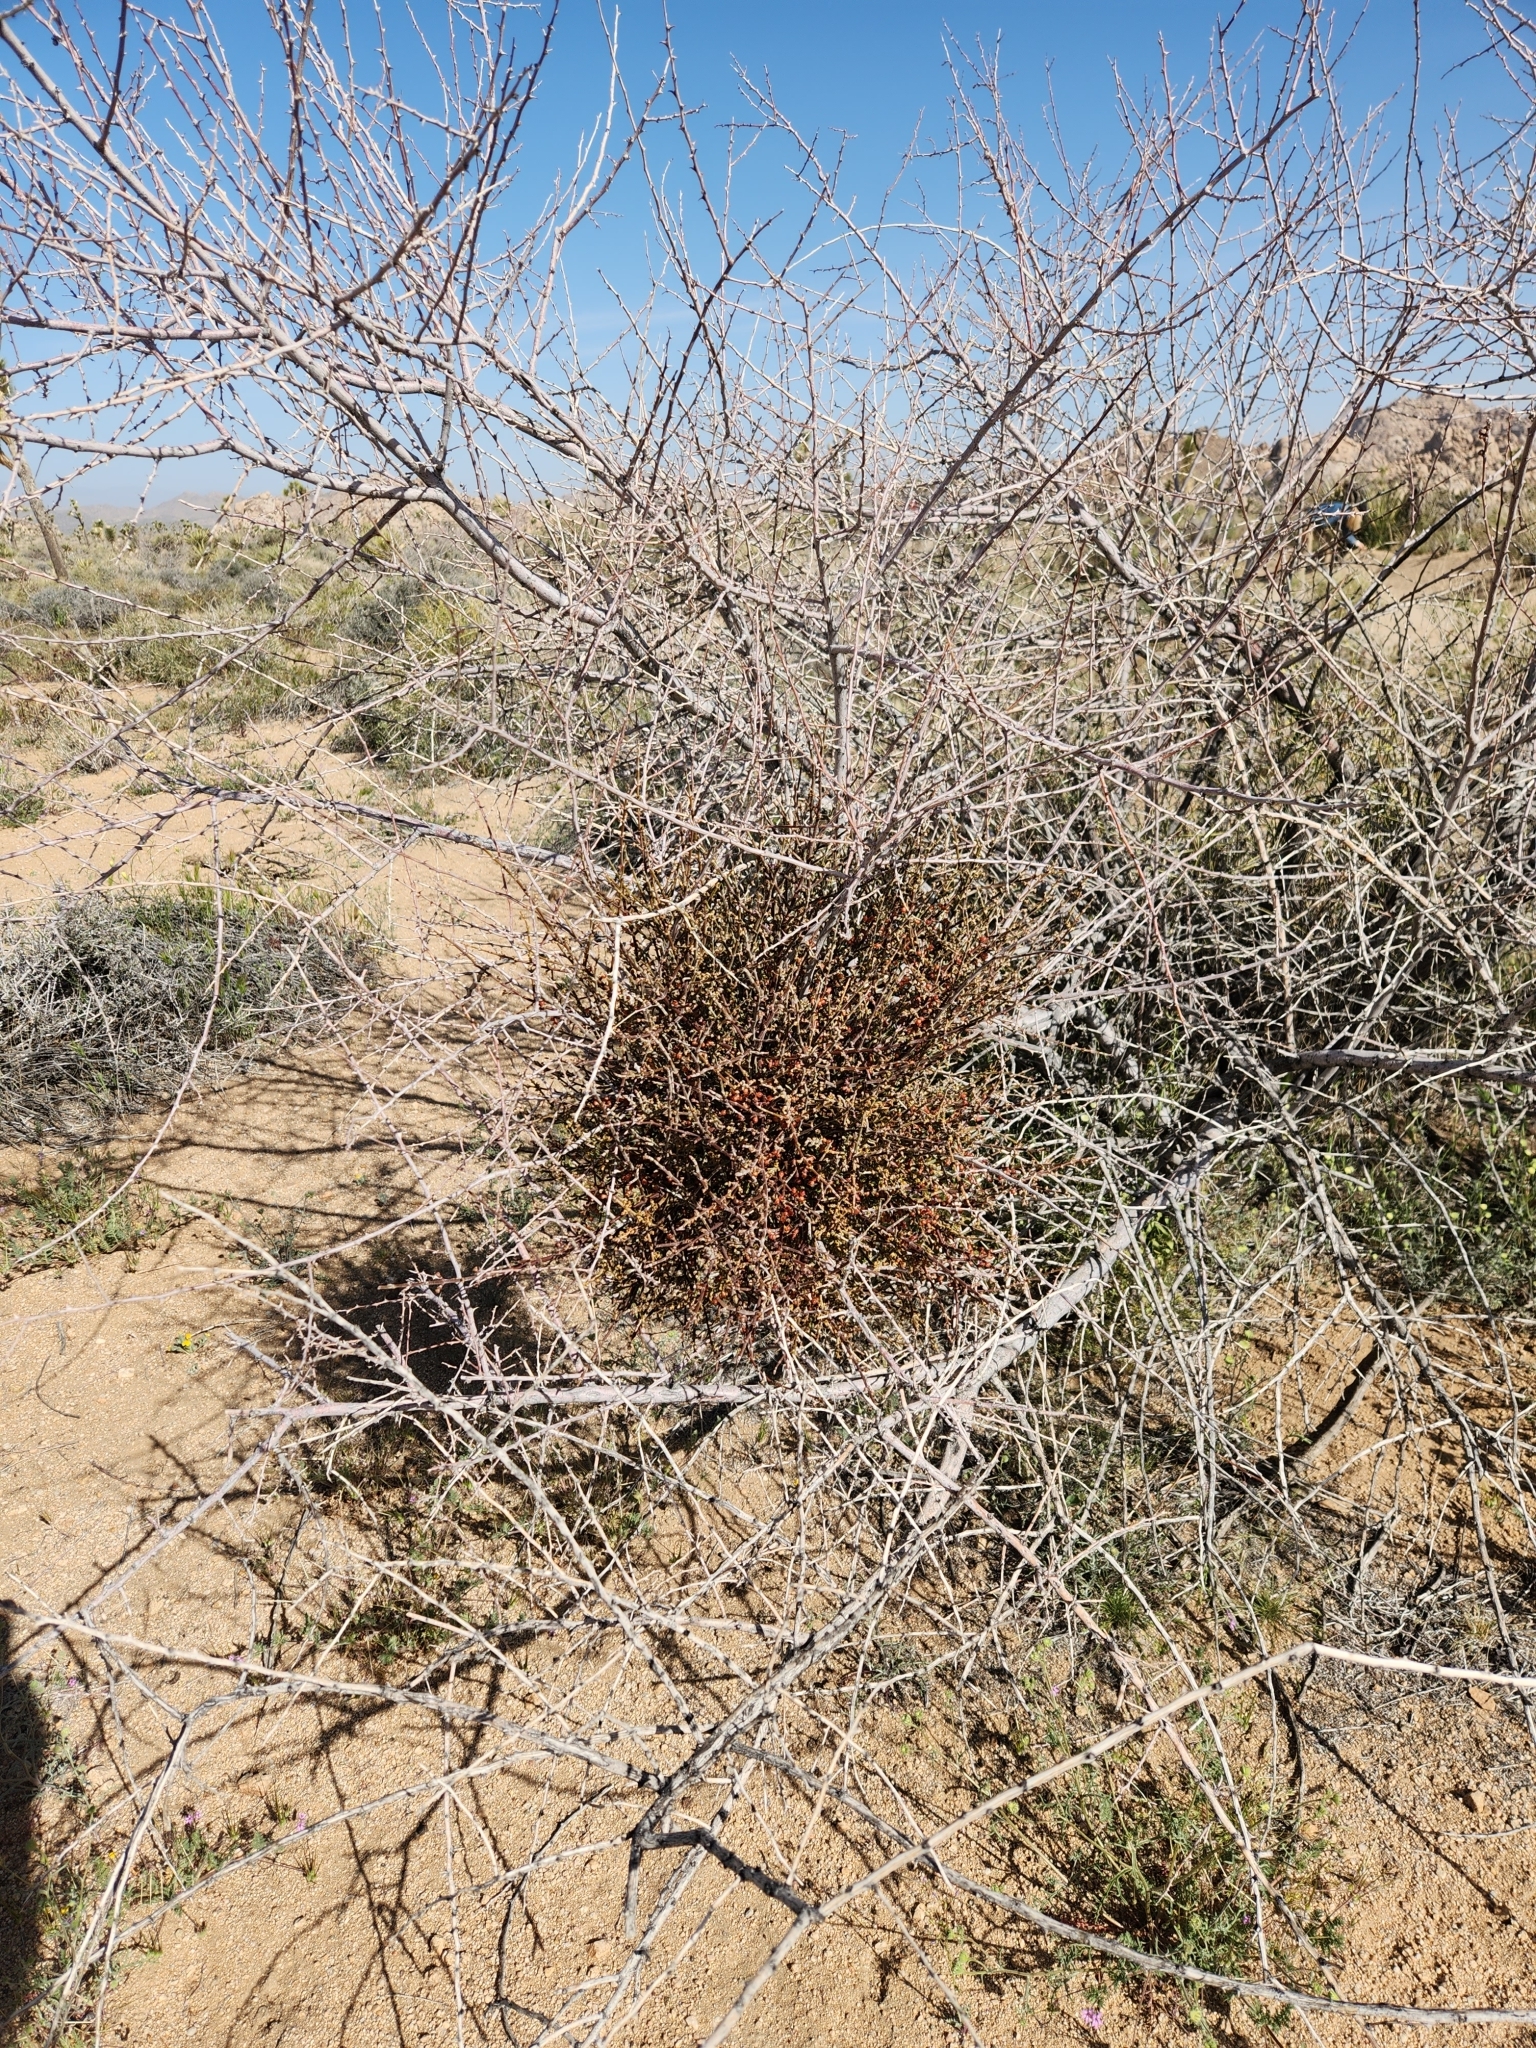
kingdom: Plantae
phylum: Tracheophyta
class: Magnoliopsida
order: Santalales
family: Viscaceae
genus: Phoradendron
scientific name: Phoradendron californicum
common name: Acacia mistletoe
